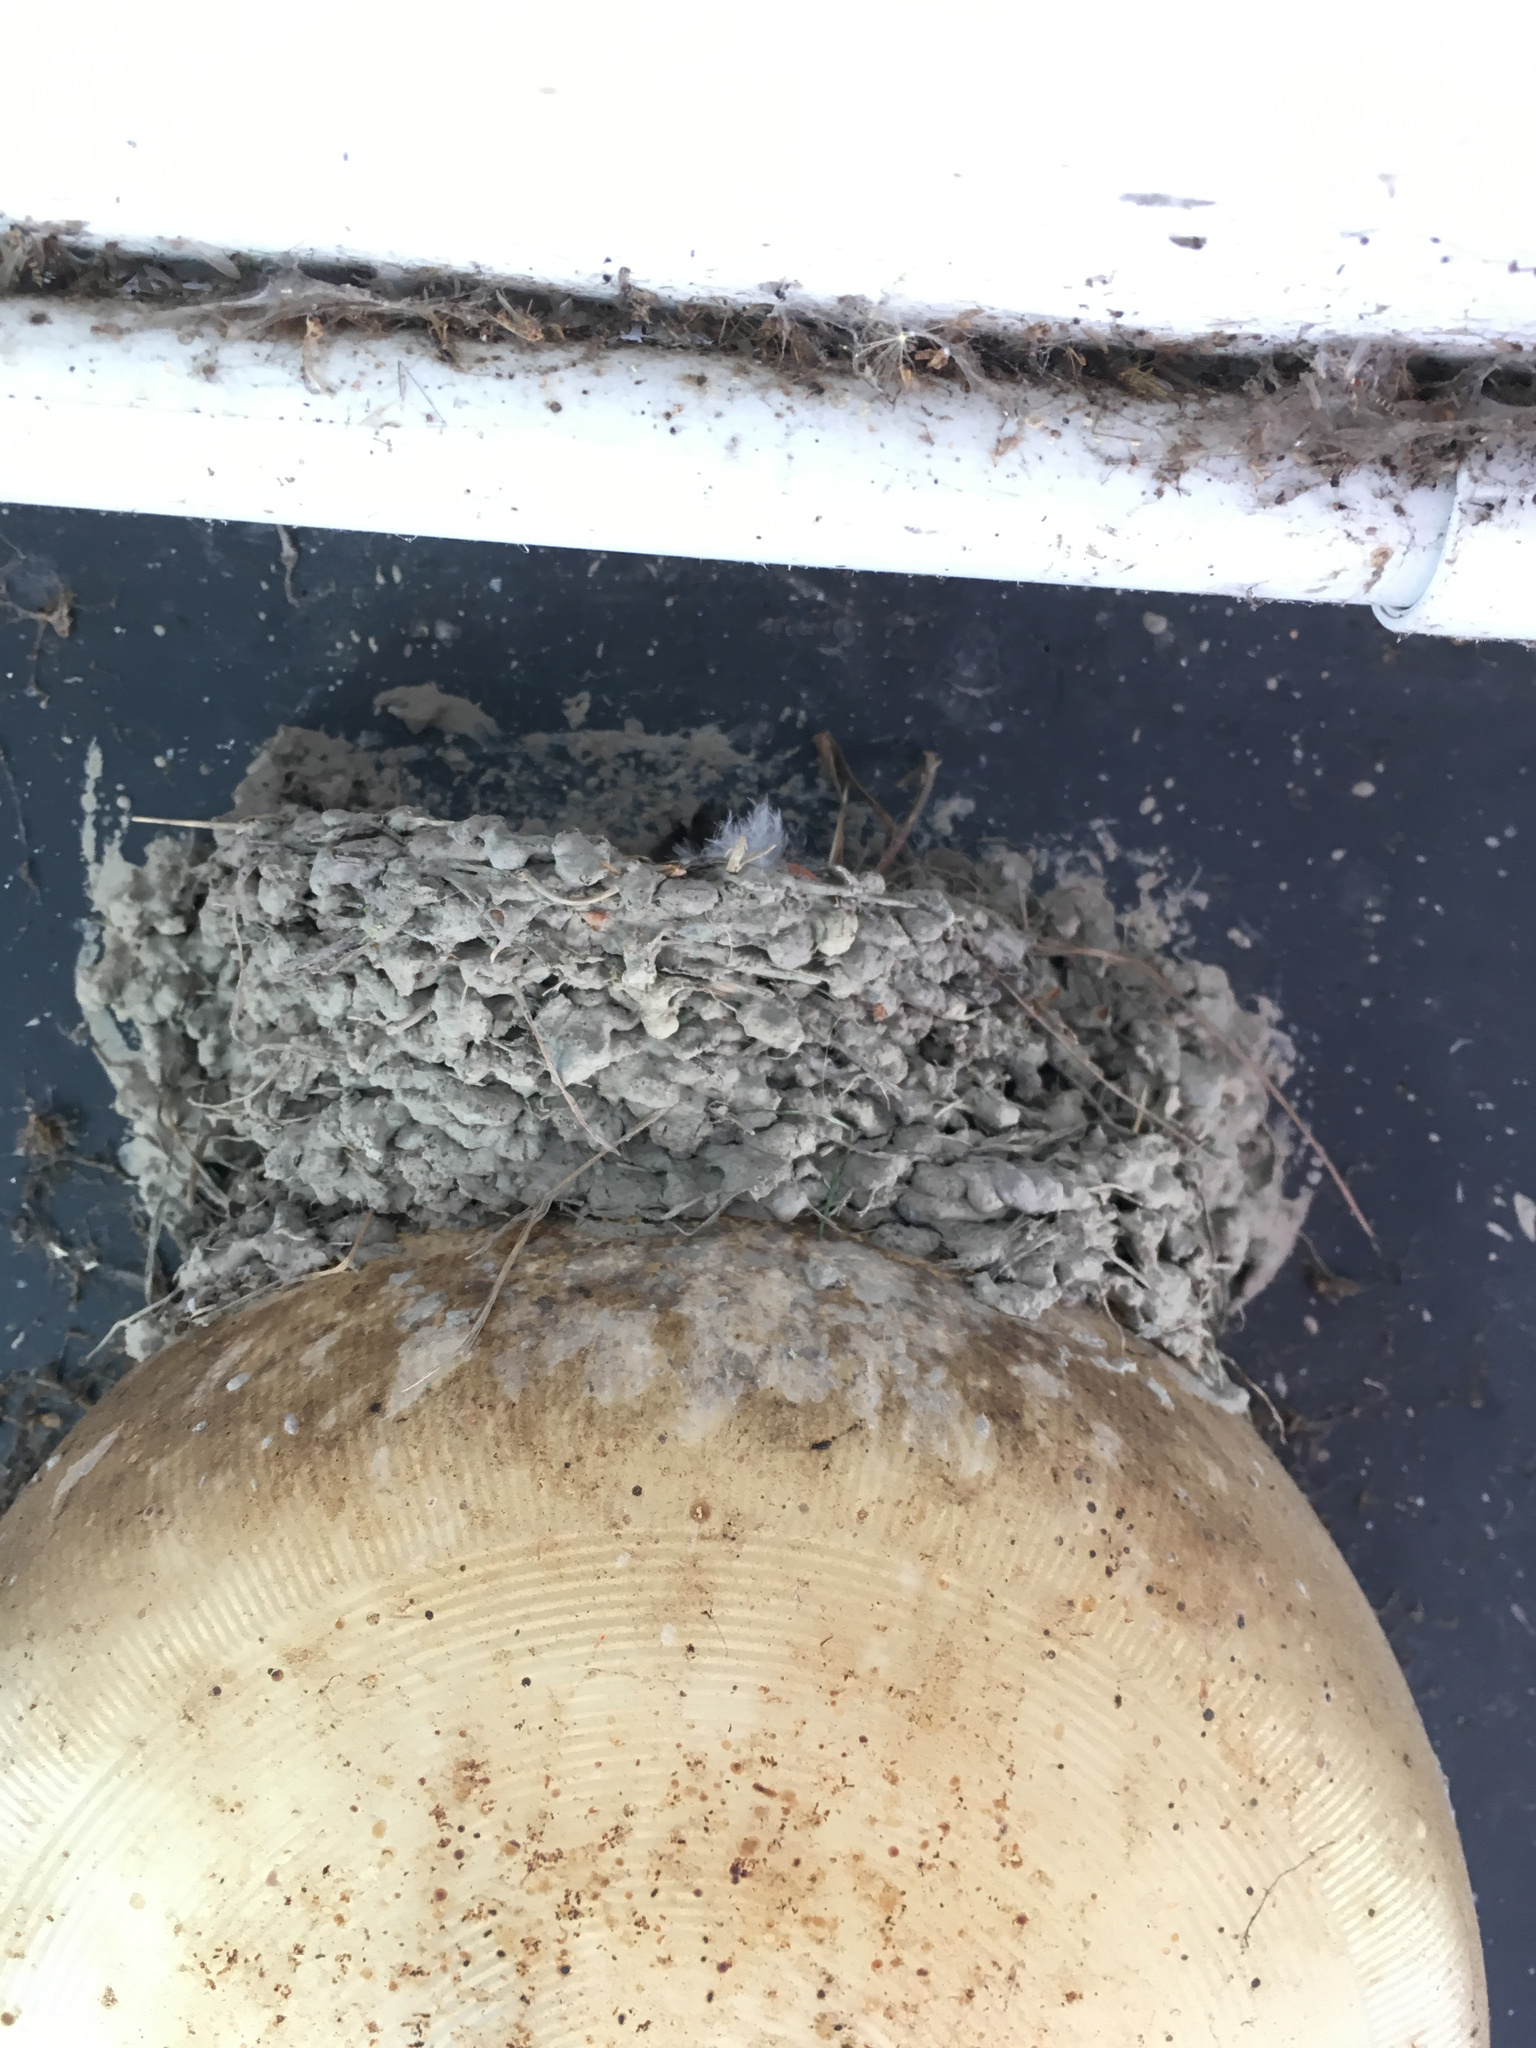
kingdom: Animalia
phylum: Chordata
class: Aves
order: Passeriformes
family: Hirundinidae
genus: Hirundo
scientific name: Hirundo neoxena
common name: Welcome swallow
